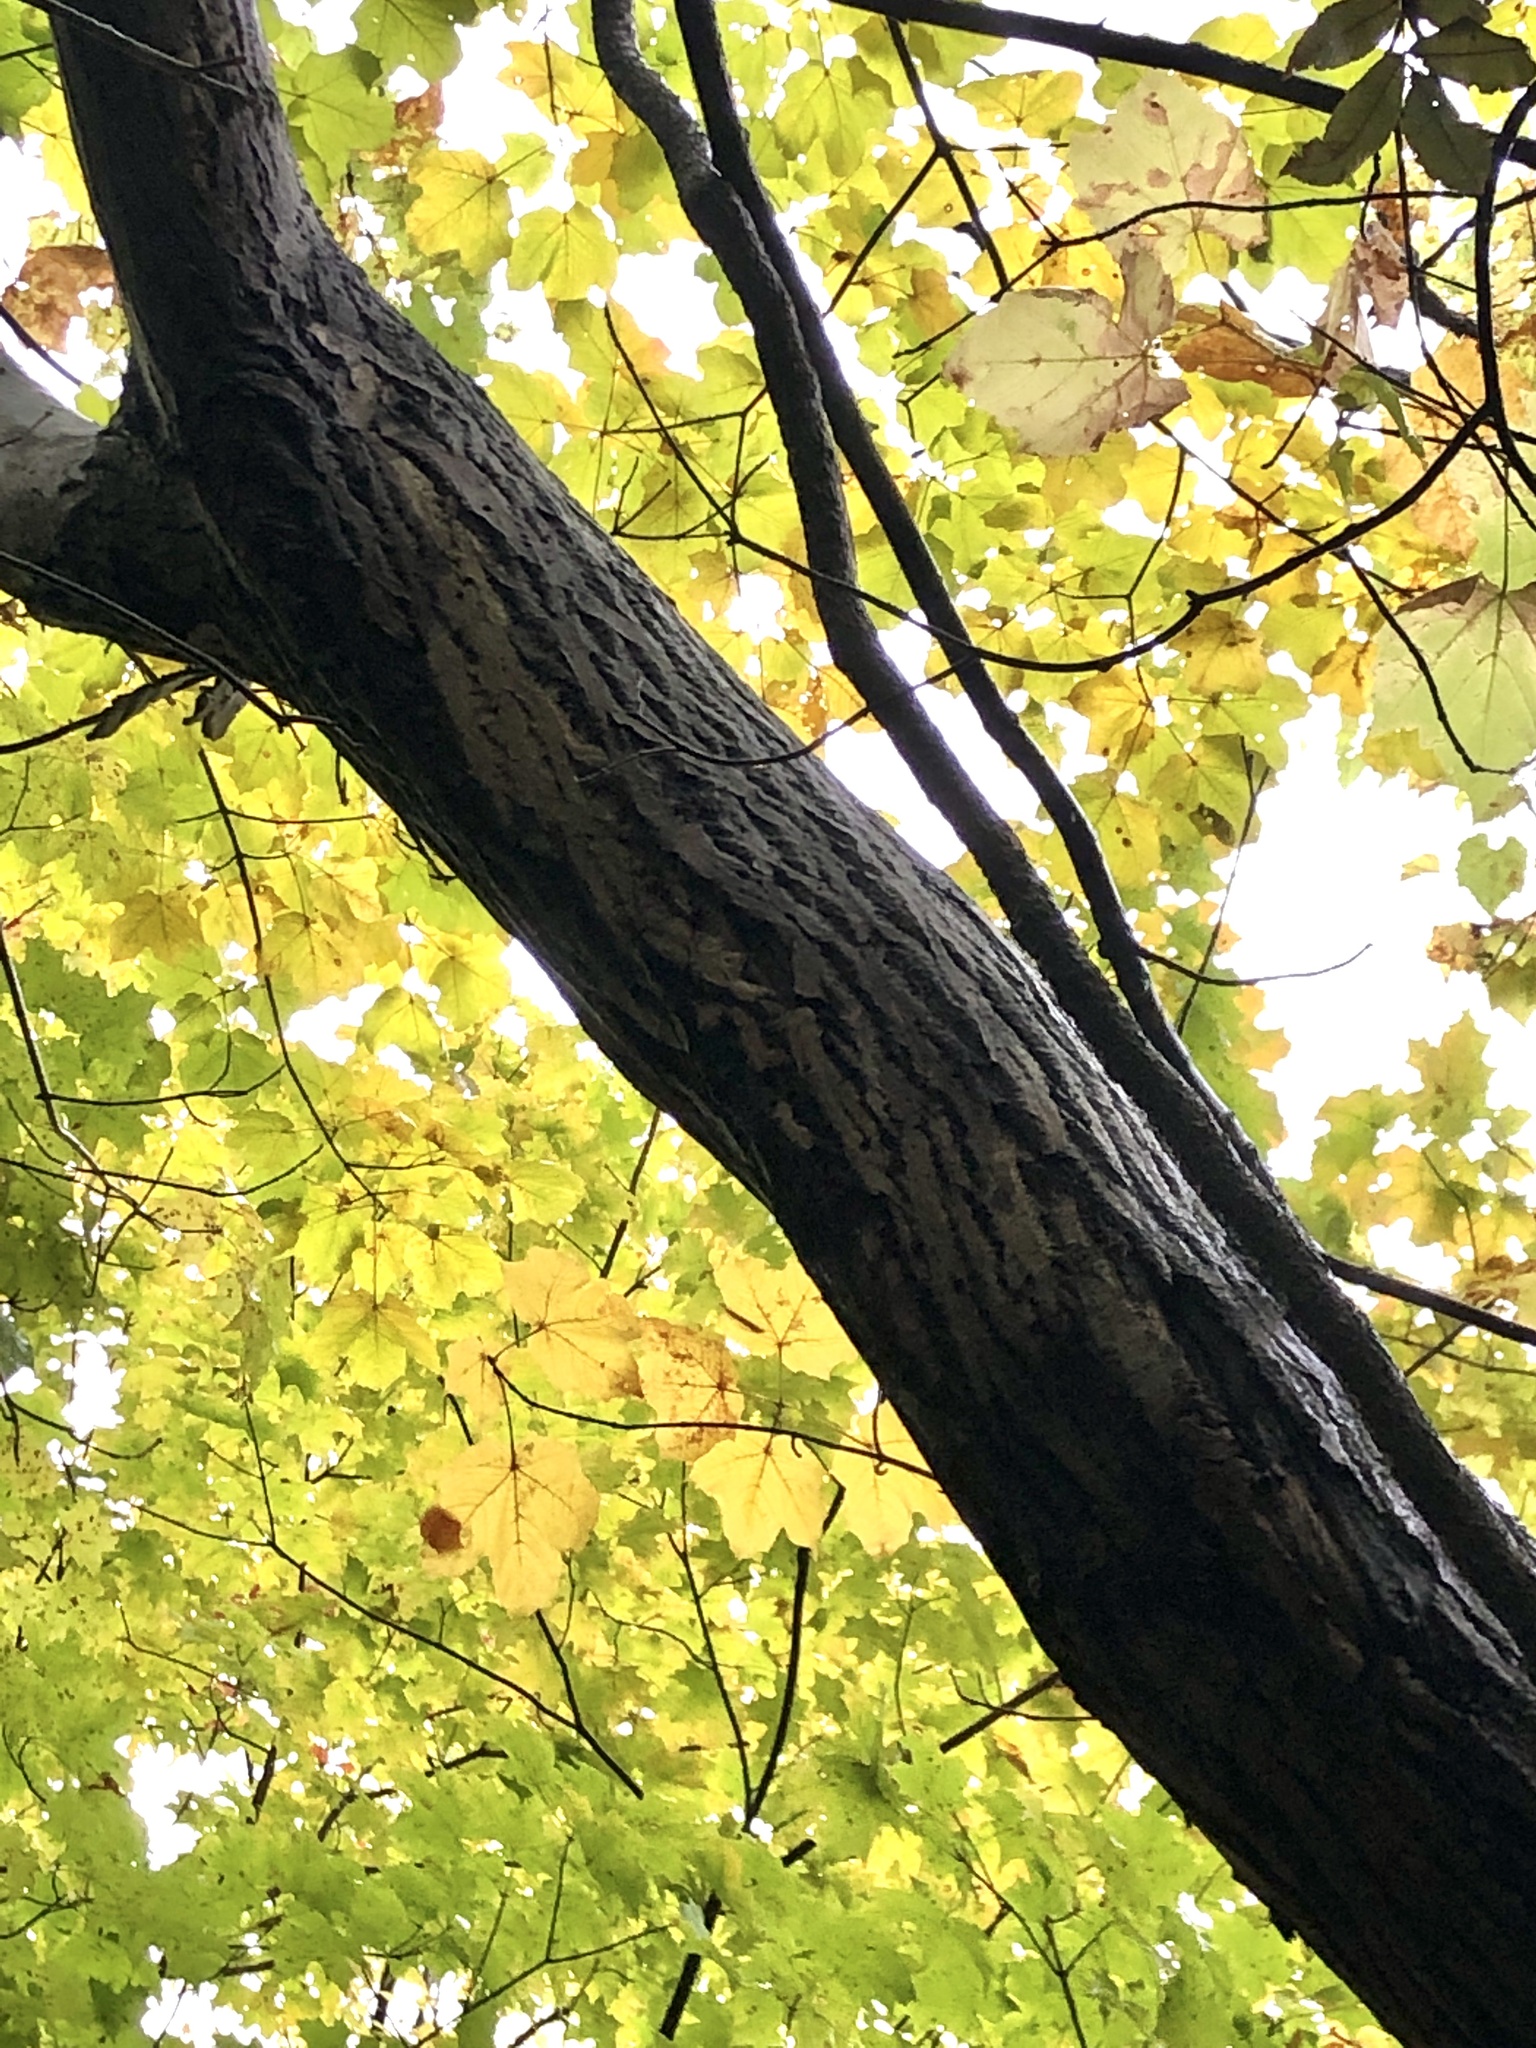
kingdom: Plantae
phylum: Tracheophyta
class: Magnoliopsida
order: Fagales
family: Juglandaceae
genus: Juglans
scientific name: Juglans cinerea
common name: Butternut
